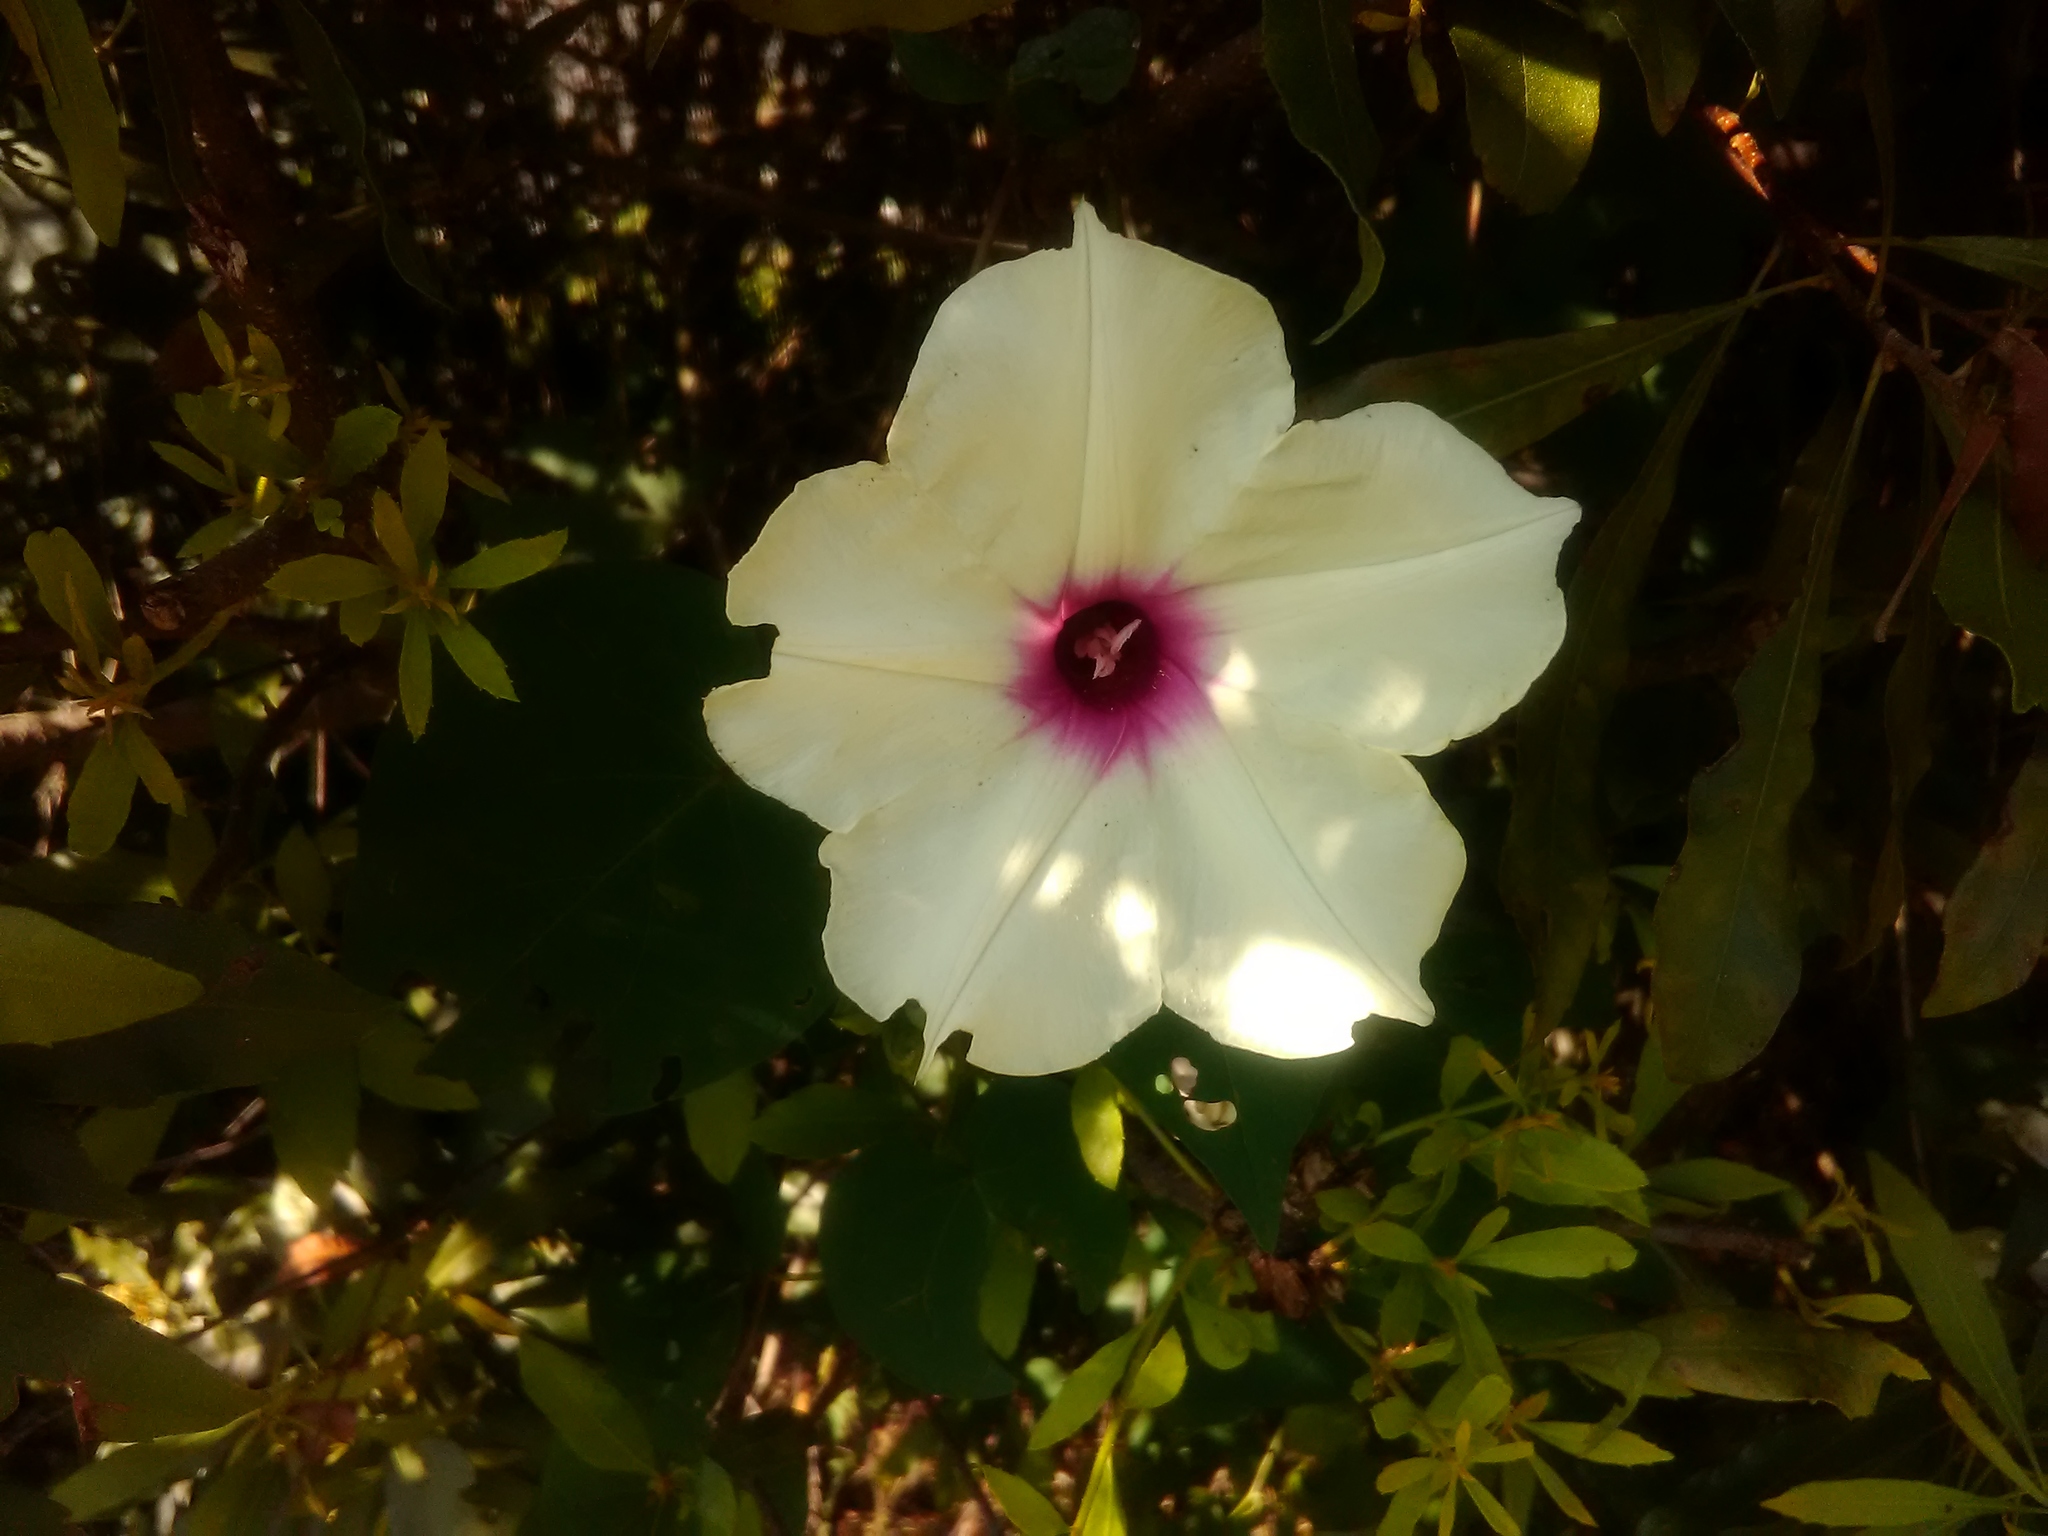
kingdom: Plantae
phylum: Tracheophyta
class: Magnoliopsida
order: Solanales
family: Convolvulaceae
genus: Ipomoea
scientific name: Ipomoea pandurata
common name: Man-of-the-earth
